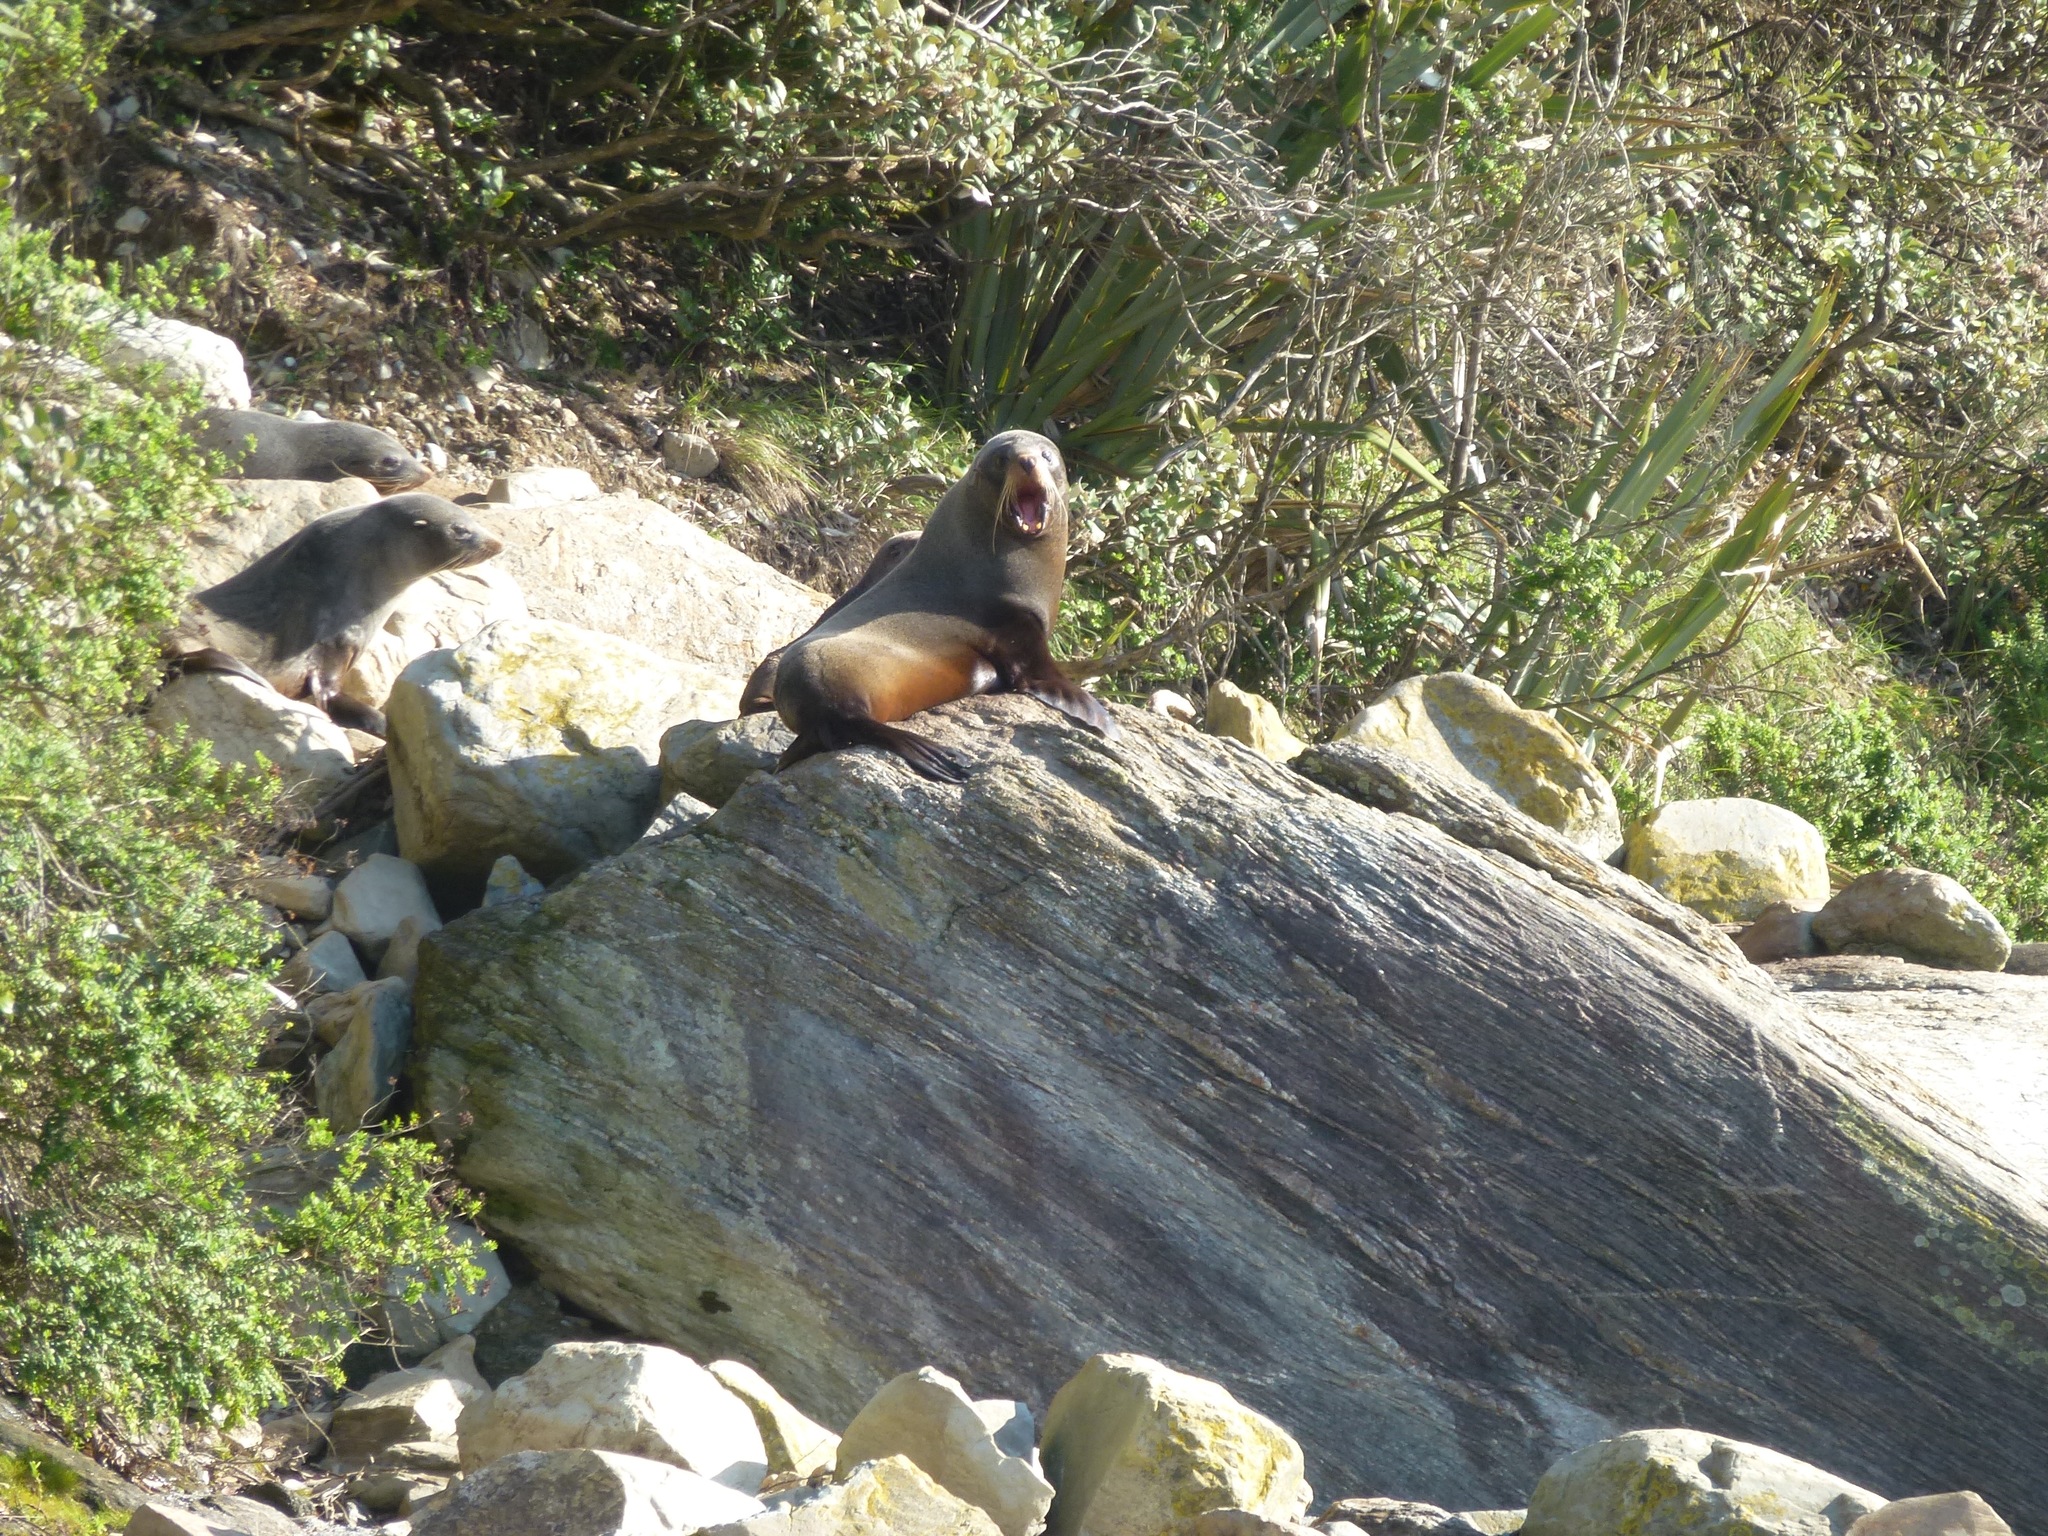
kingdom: Animalia
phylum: Chordata
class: Mammalia
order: Carnivora
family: Otariidae
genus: Arctocephalus
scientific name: Arctocephalus forsteri
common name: New zealand fur seal
